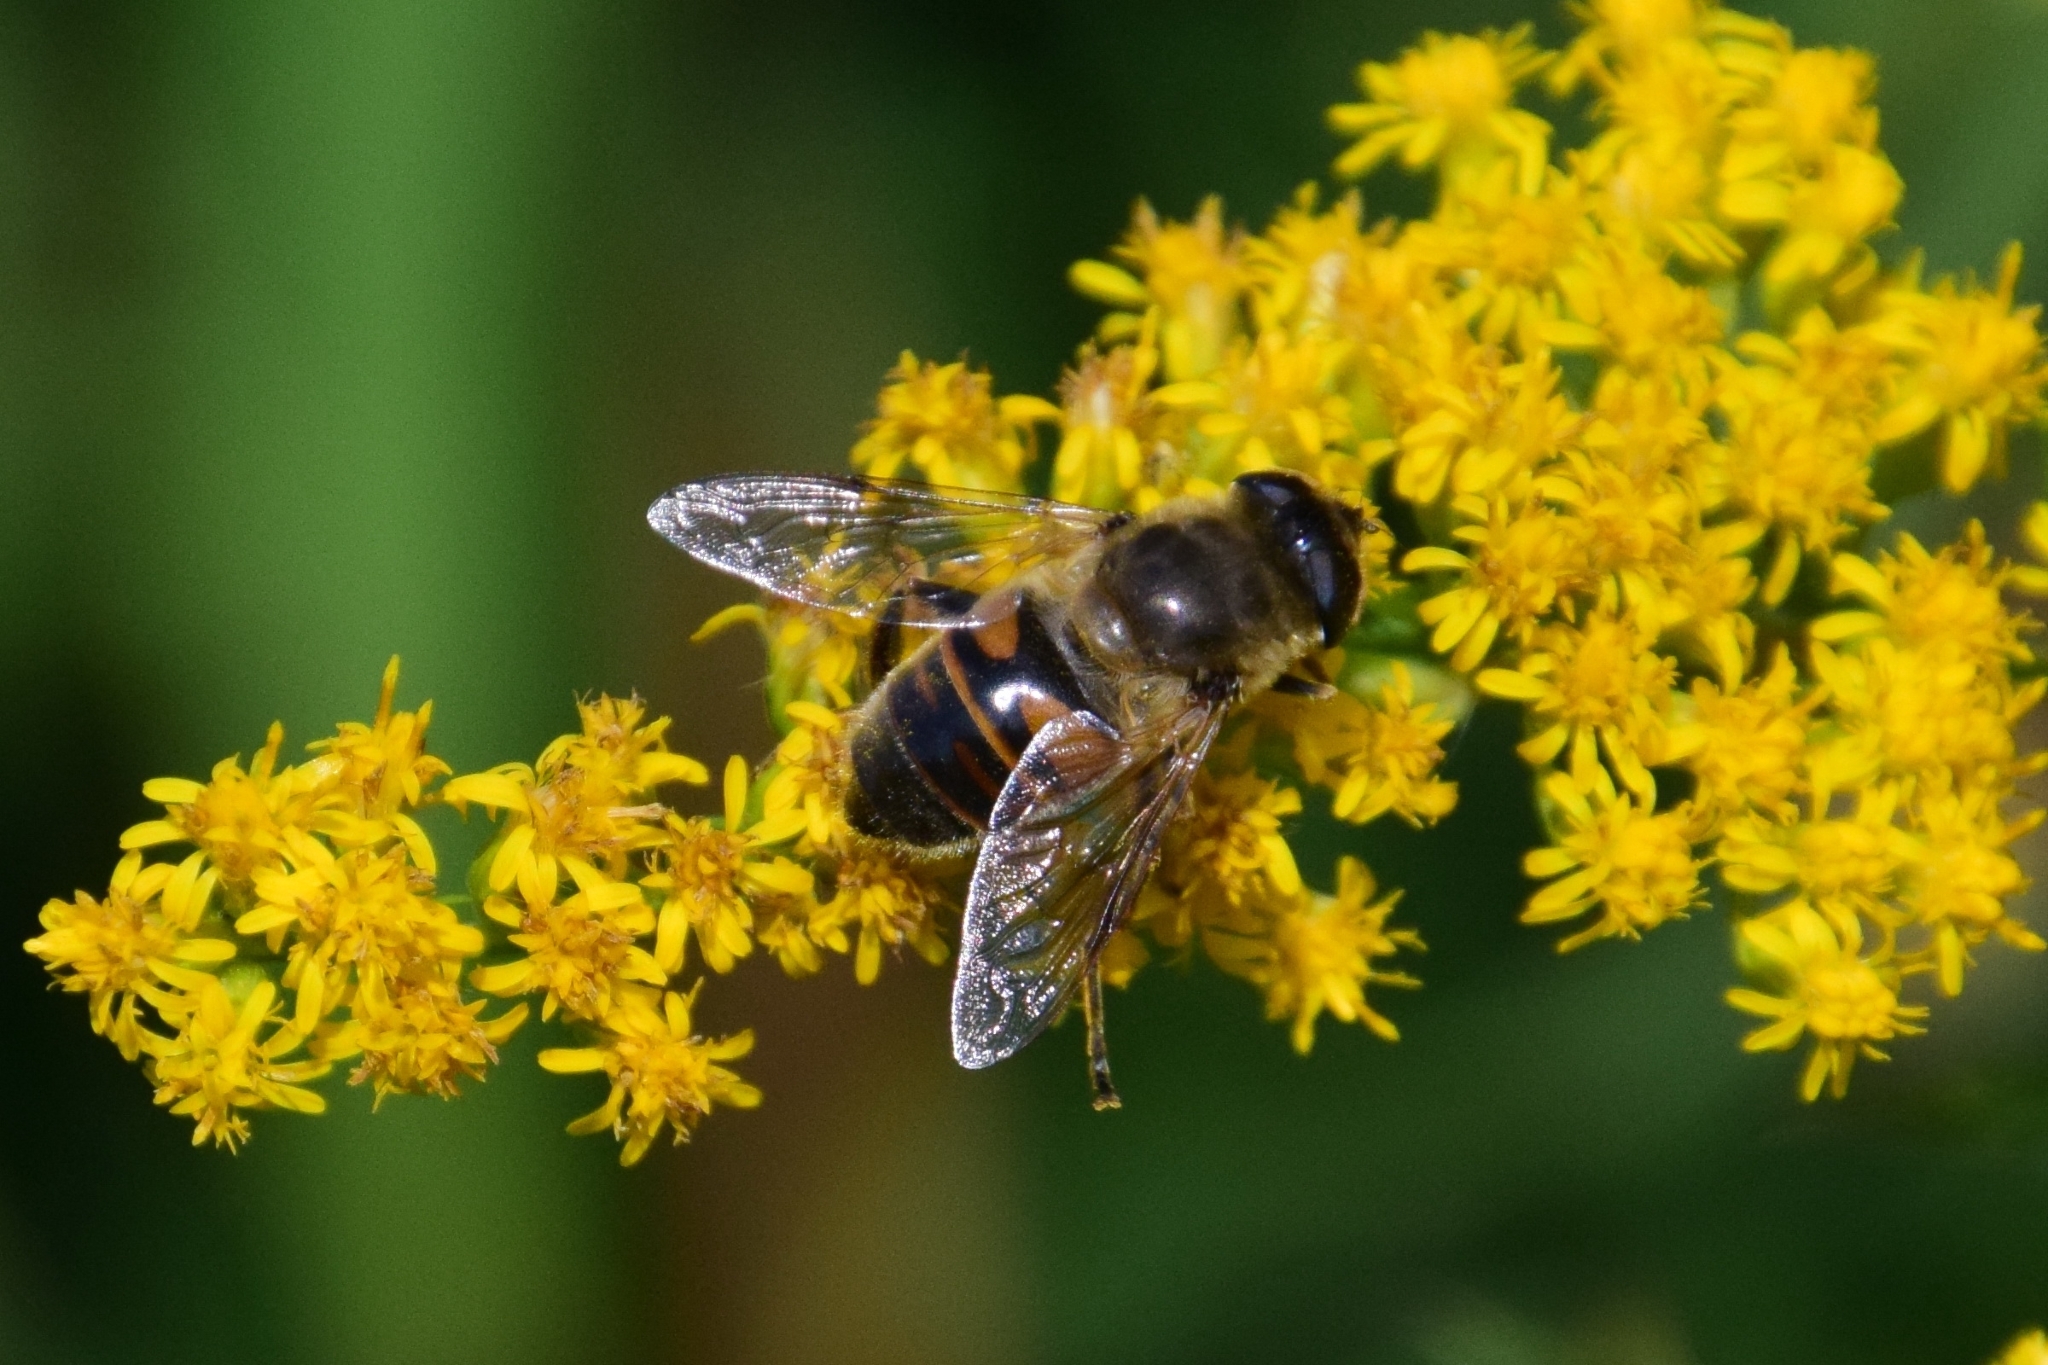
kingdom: Animalia
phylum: Arthropoda
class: Insecta
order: Diptera
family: Syrphidae
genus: Eristalis
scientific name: Eristalis tenax
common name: Drone fly
